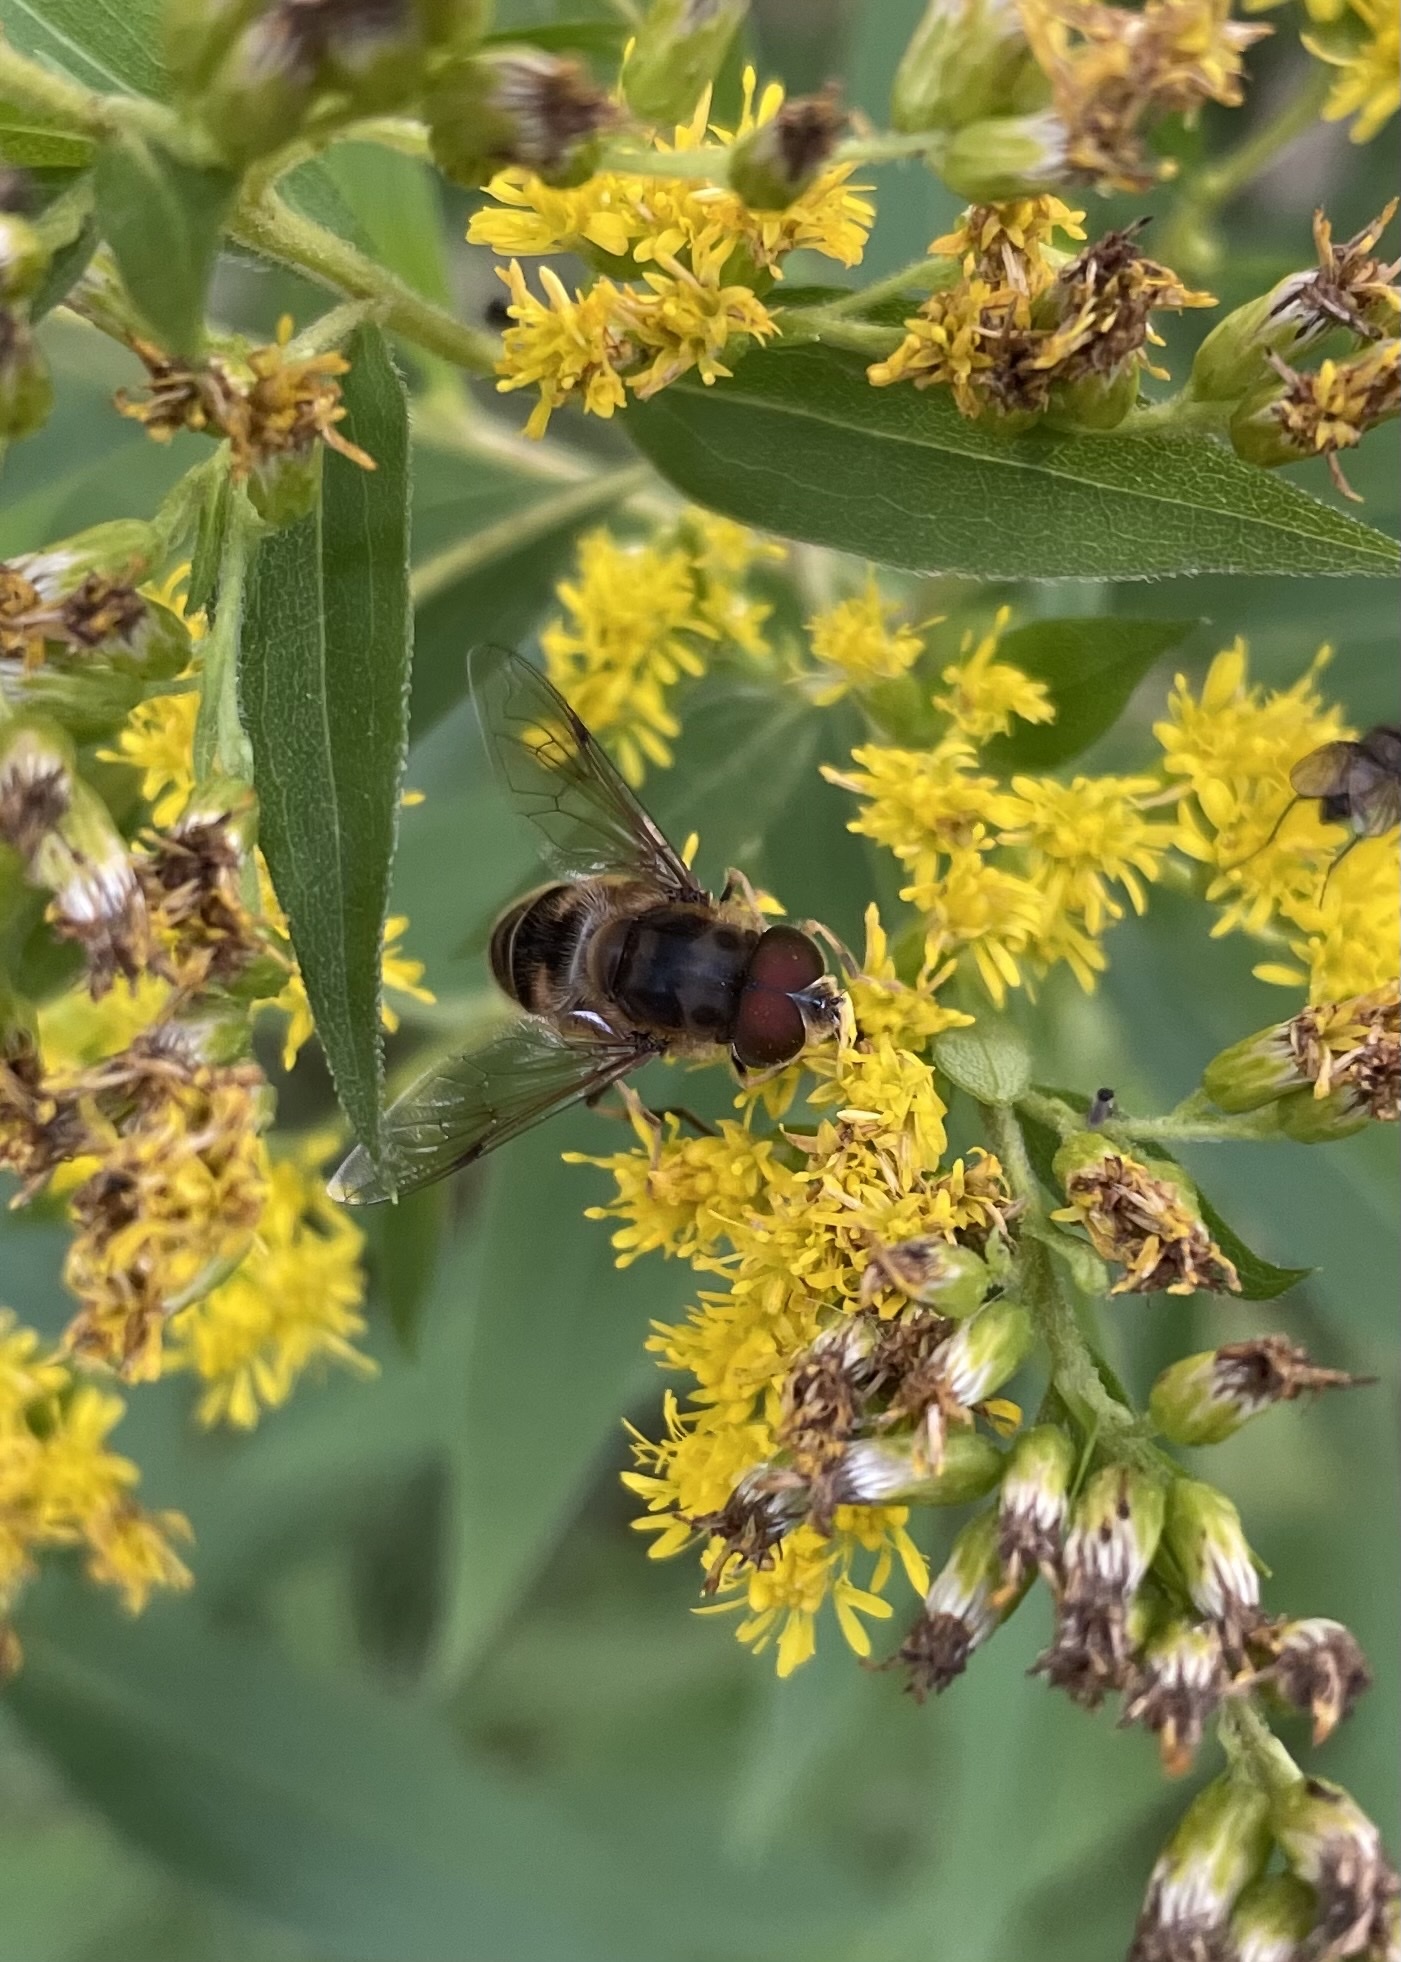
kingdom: Animalia
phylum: Arthropoda
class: Insecta
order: Diptera
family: Syrphidae
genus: Eristalis
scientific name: Eristalis pertinax
